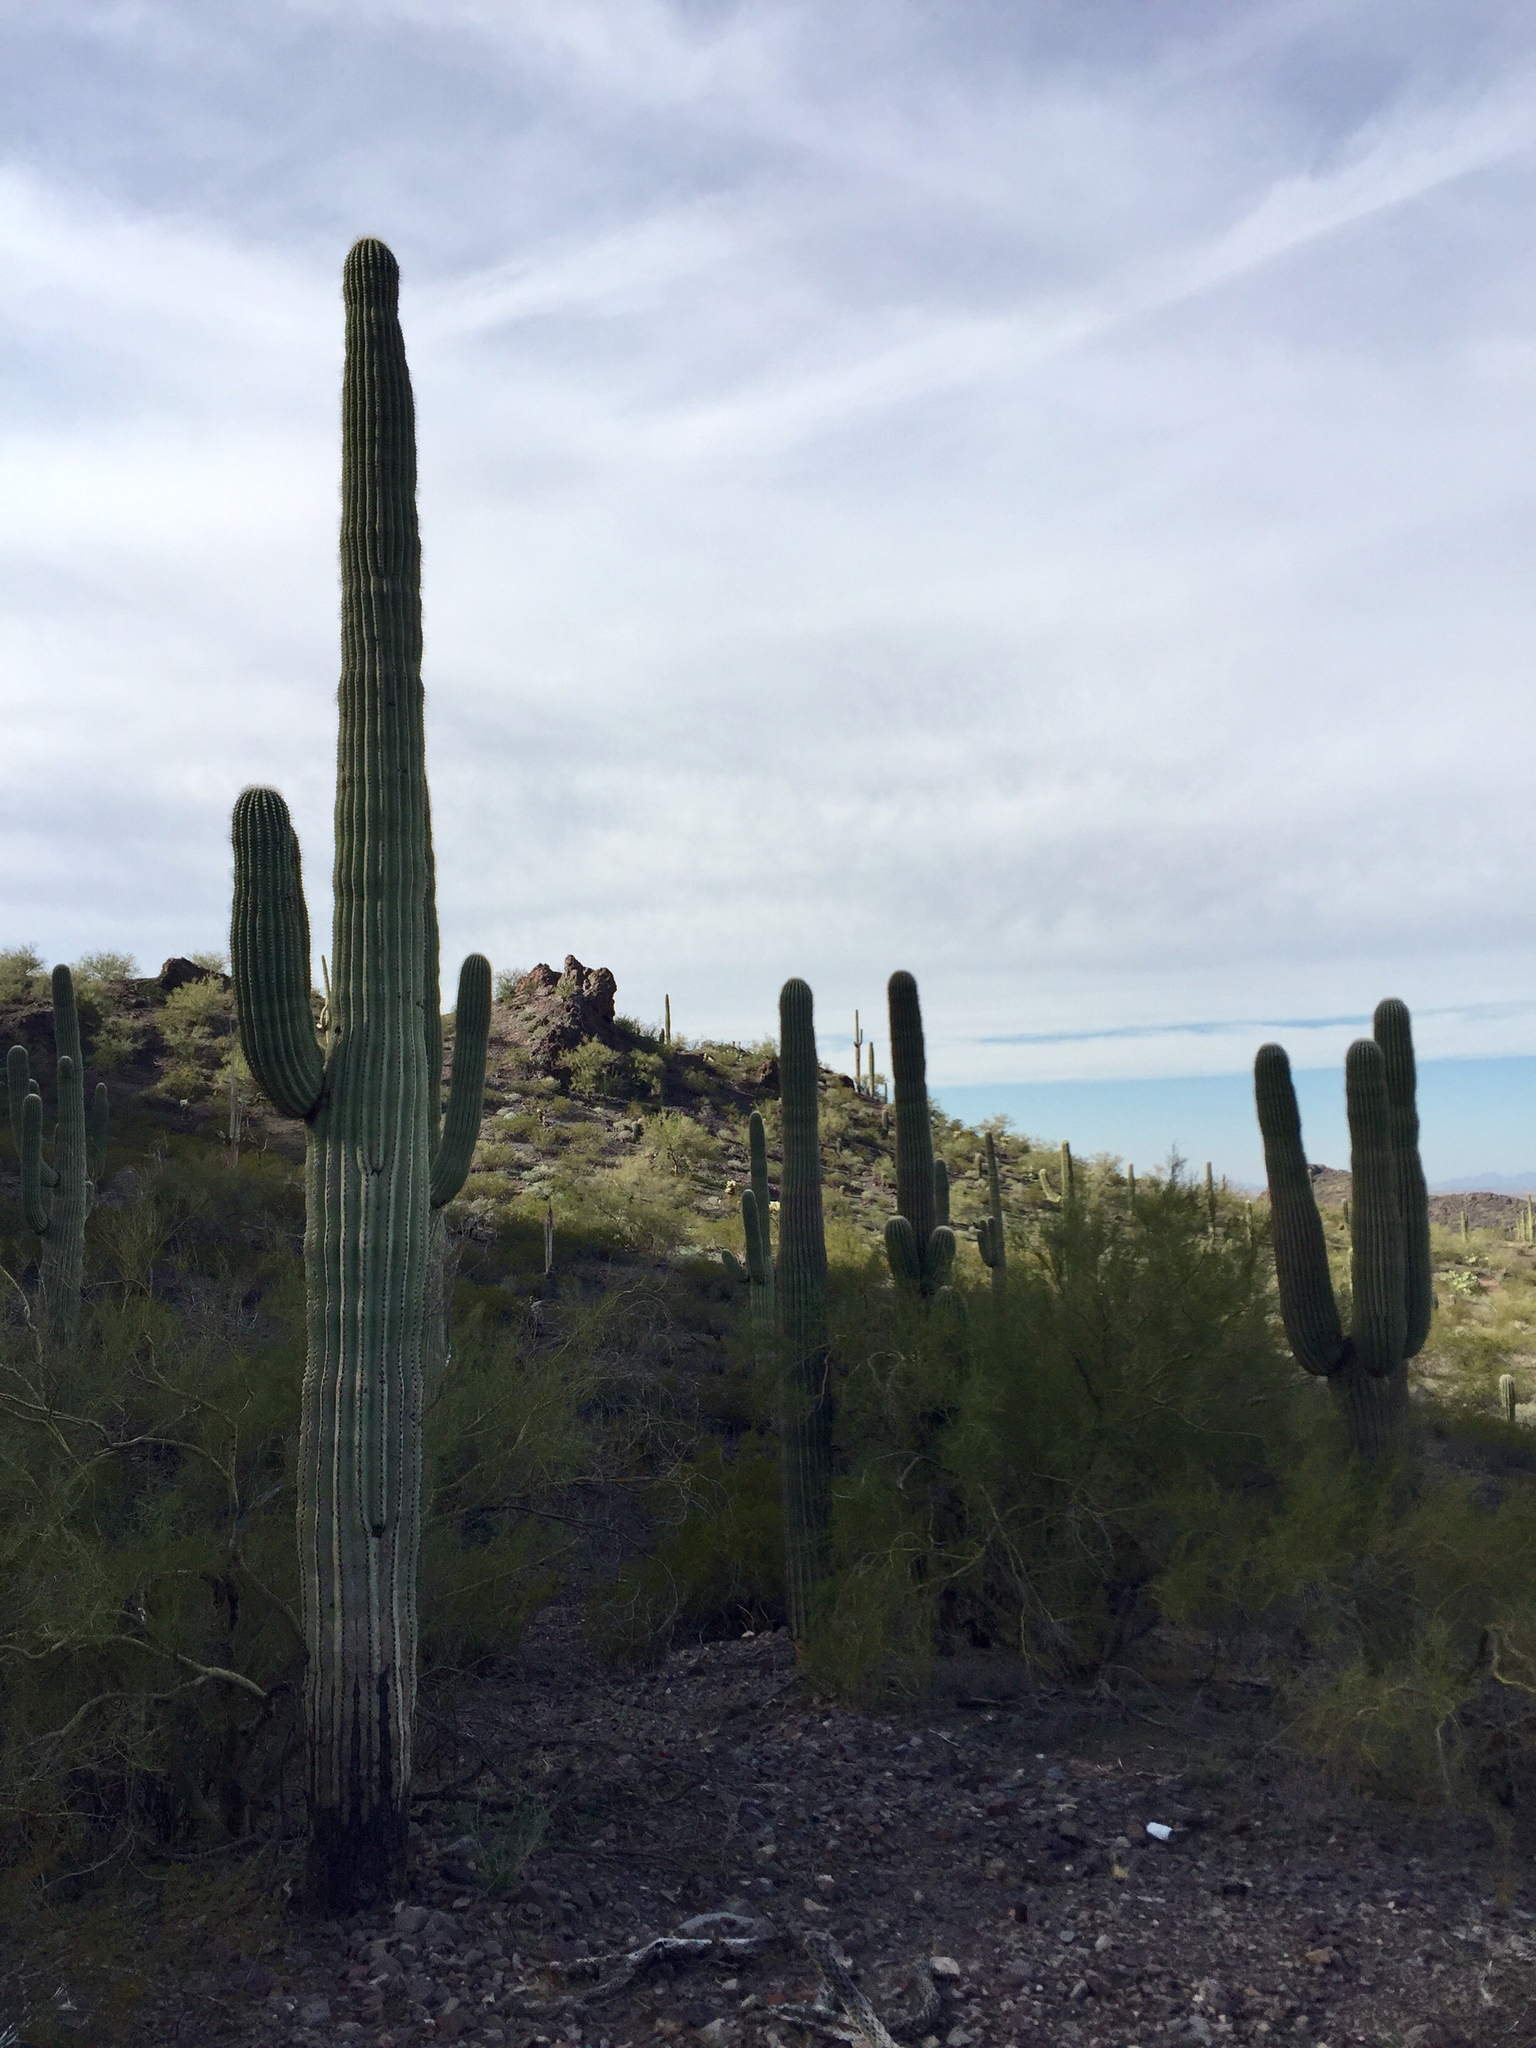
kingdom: Plantae
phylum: Tracheophyta
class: Magnoliopsida
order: Caryophyllales
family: Cactaceae
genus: Carnegiea
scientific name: Carnegiea gigantea
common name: Saguaro
